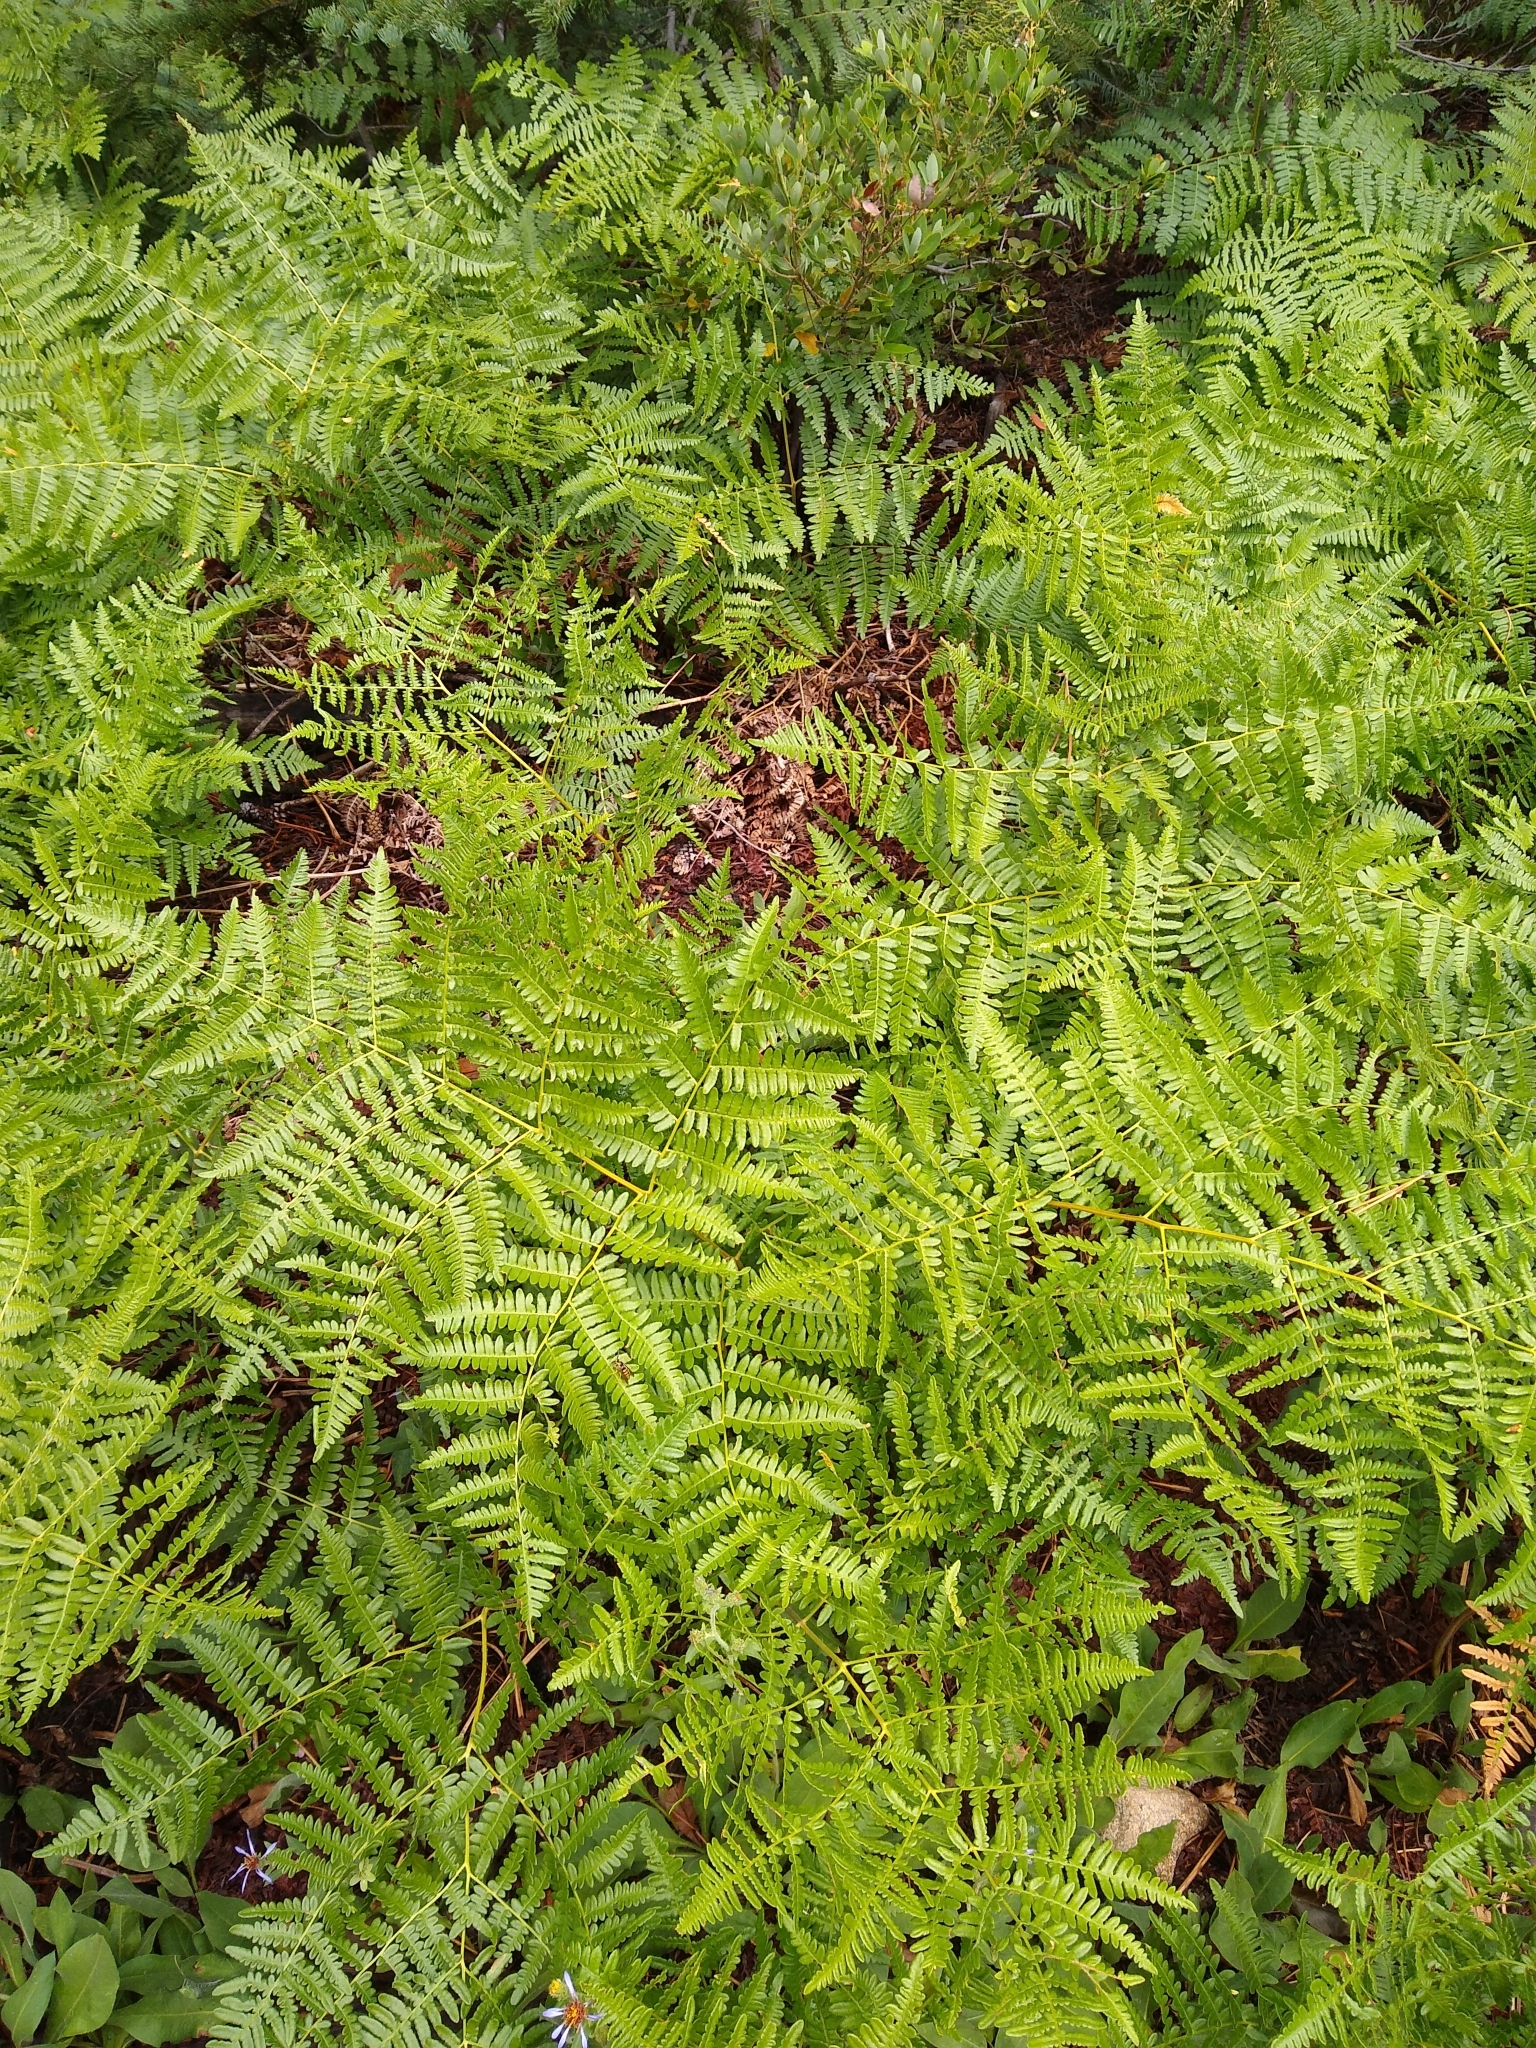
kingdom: Plantae
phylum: Tracheophyta
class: Polypodiopsida
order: Polypodiales
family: Dennstaedtiaceae
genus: Pteridium
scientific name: Pteridium aquilinum
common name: Bracken
